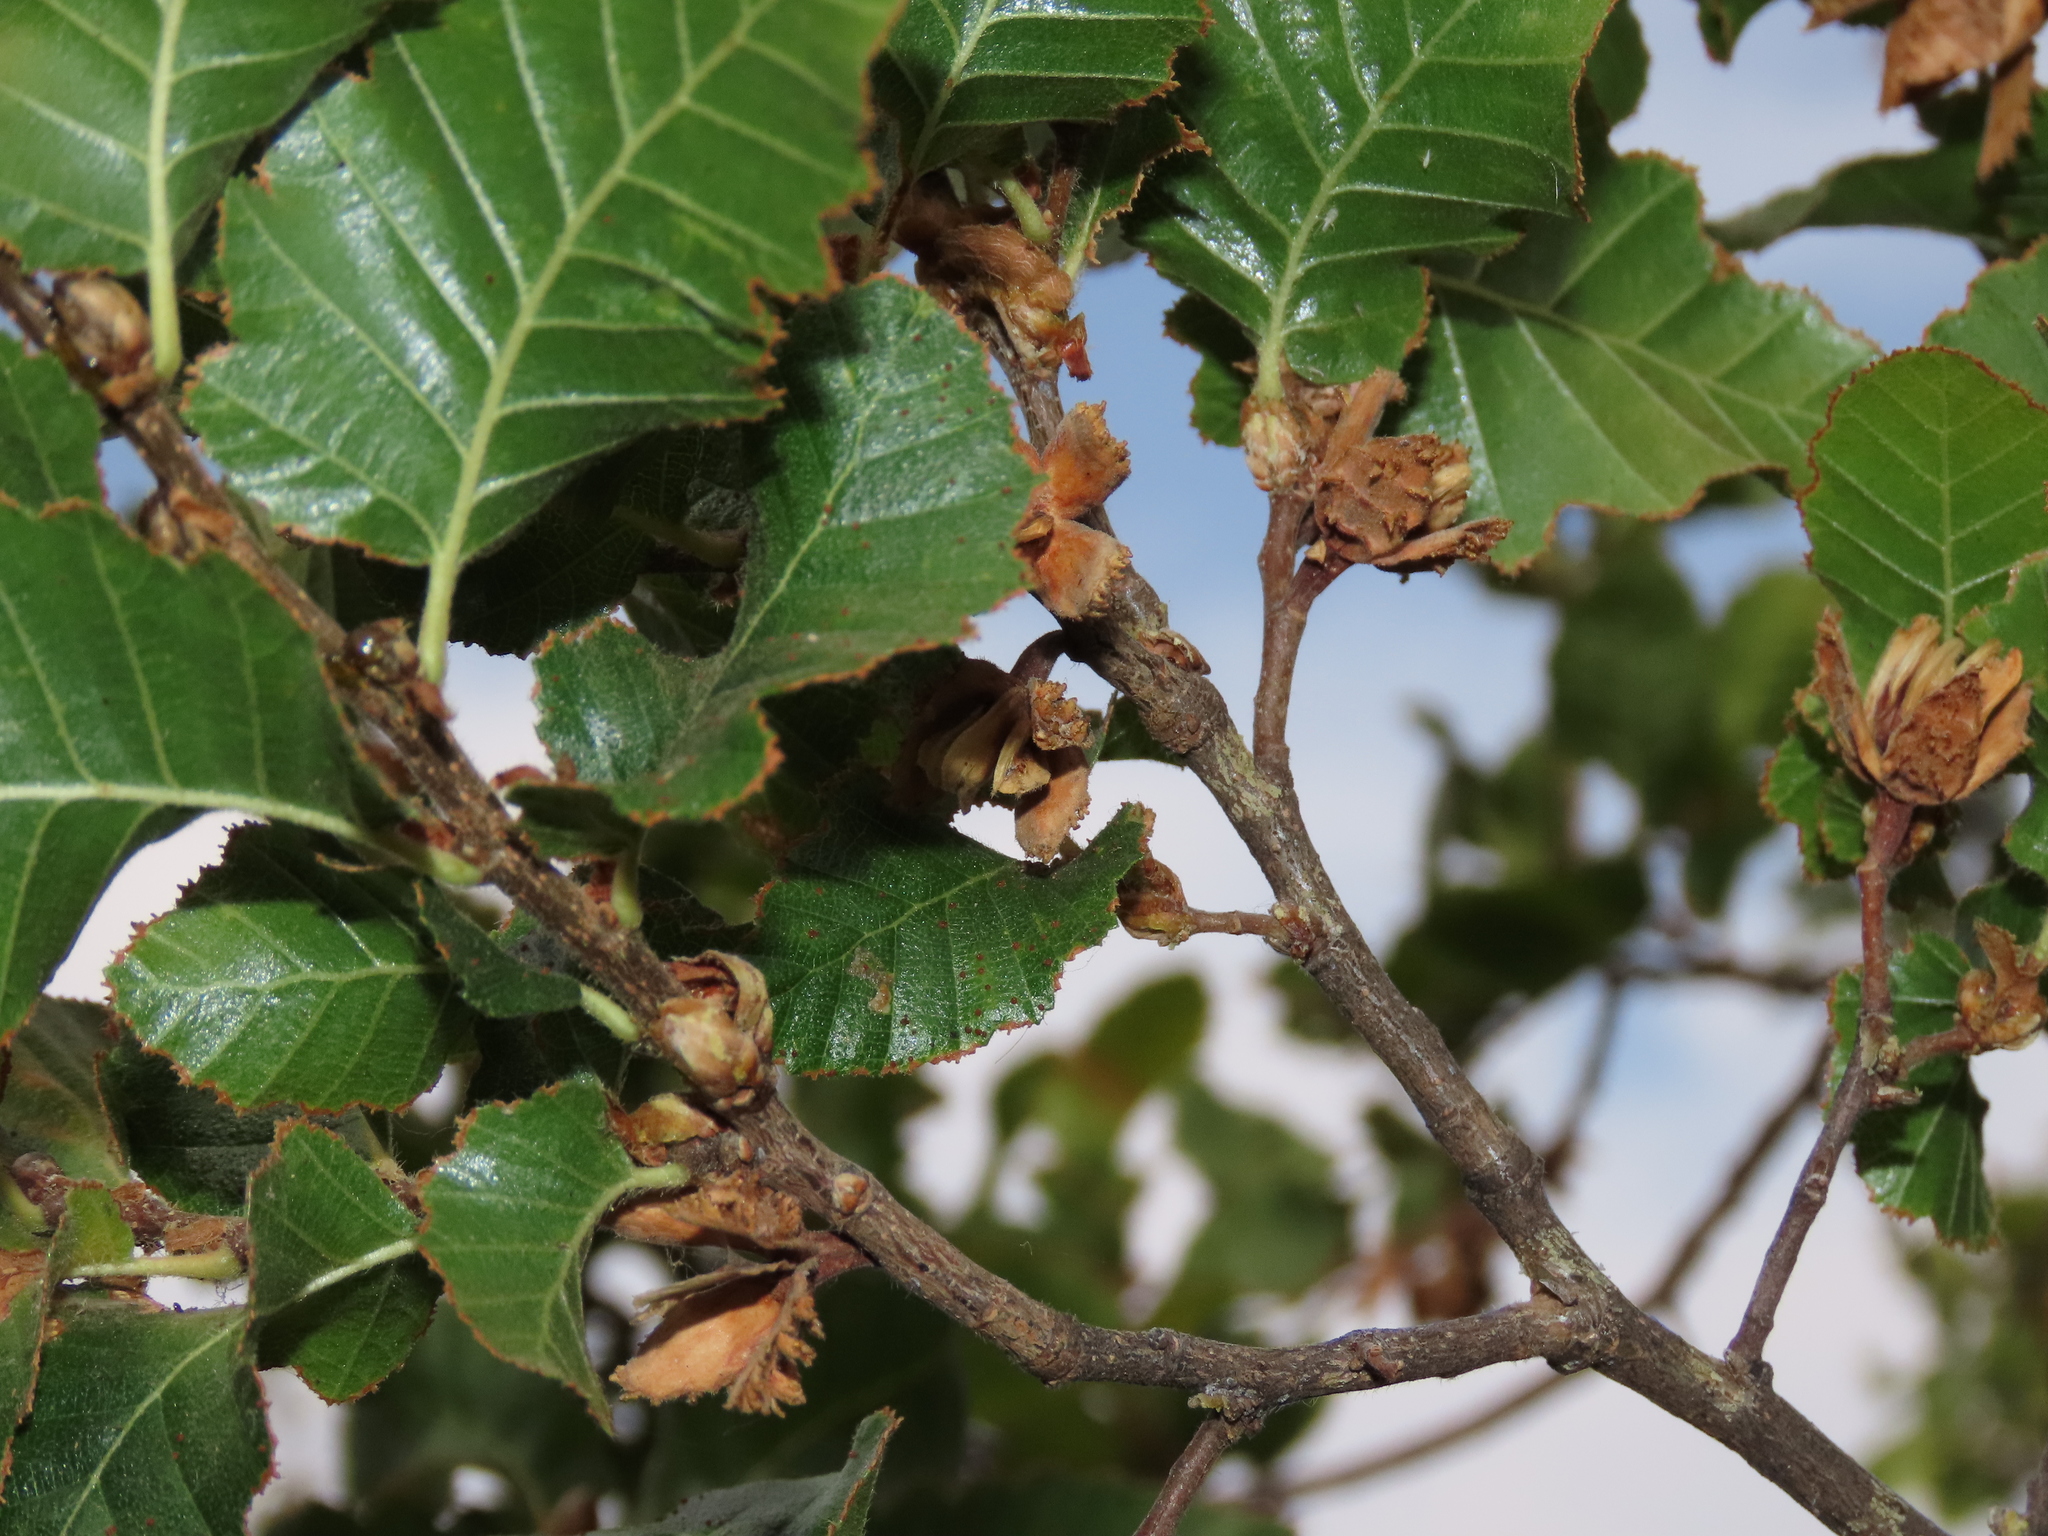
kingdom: Plantae
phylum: Tracheophyta
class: Magnoliopsida
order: Fagales
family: Nothofagaceae
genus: Nothofagus
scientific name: Nothofagus macrocarpa
